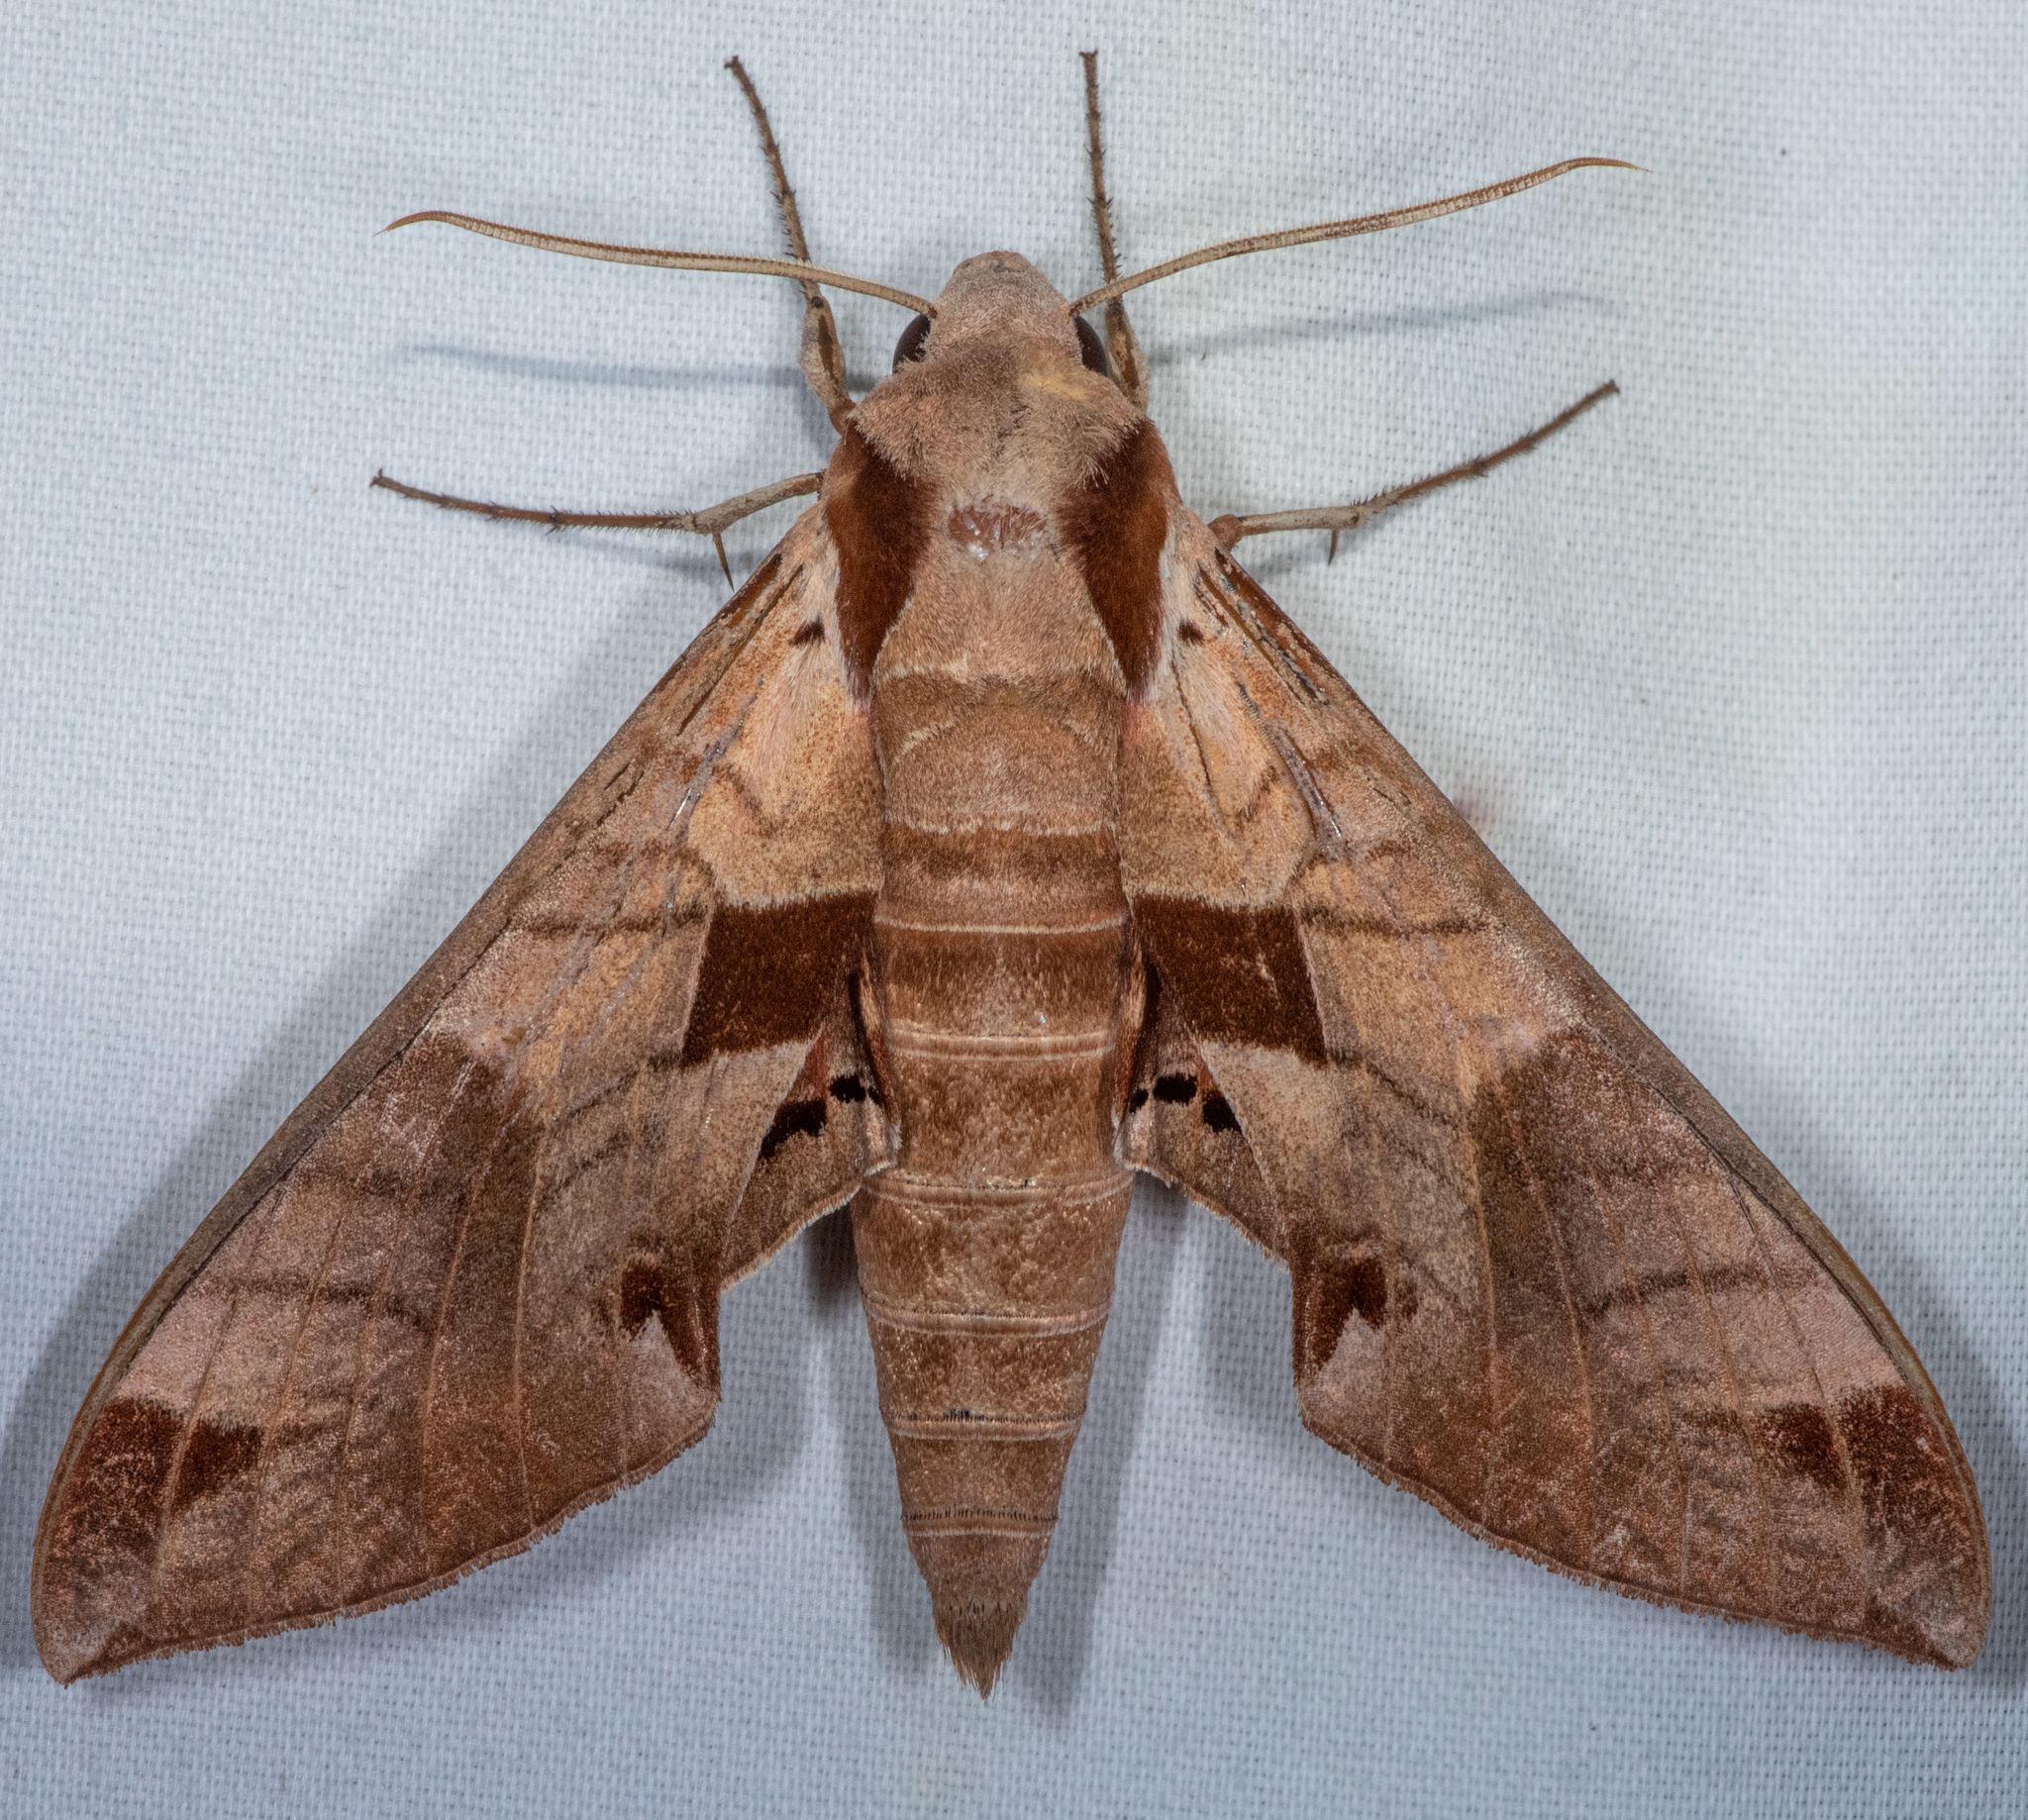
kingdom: Animalia
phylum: Arthropoda
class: Insecta
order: Lepidoptera
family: Sphingidae
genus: Eumorpha
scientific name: Eumorpha achemon
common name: Achemon sphinx
